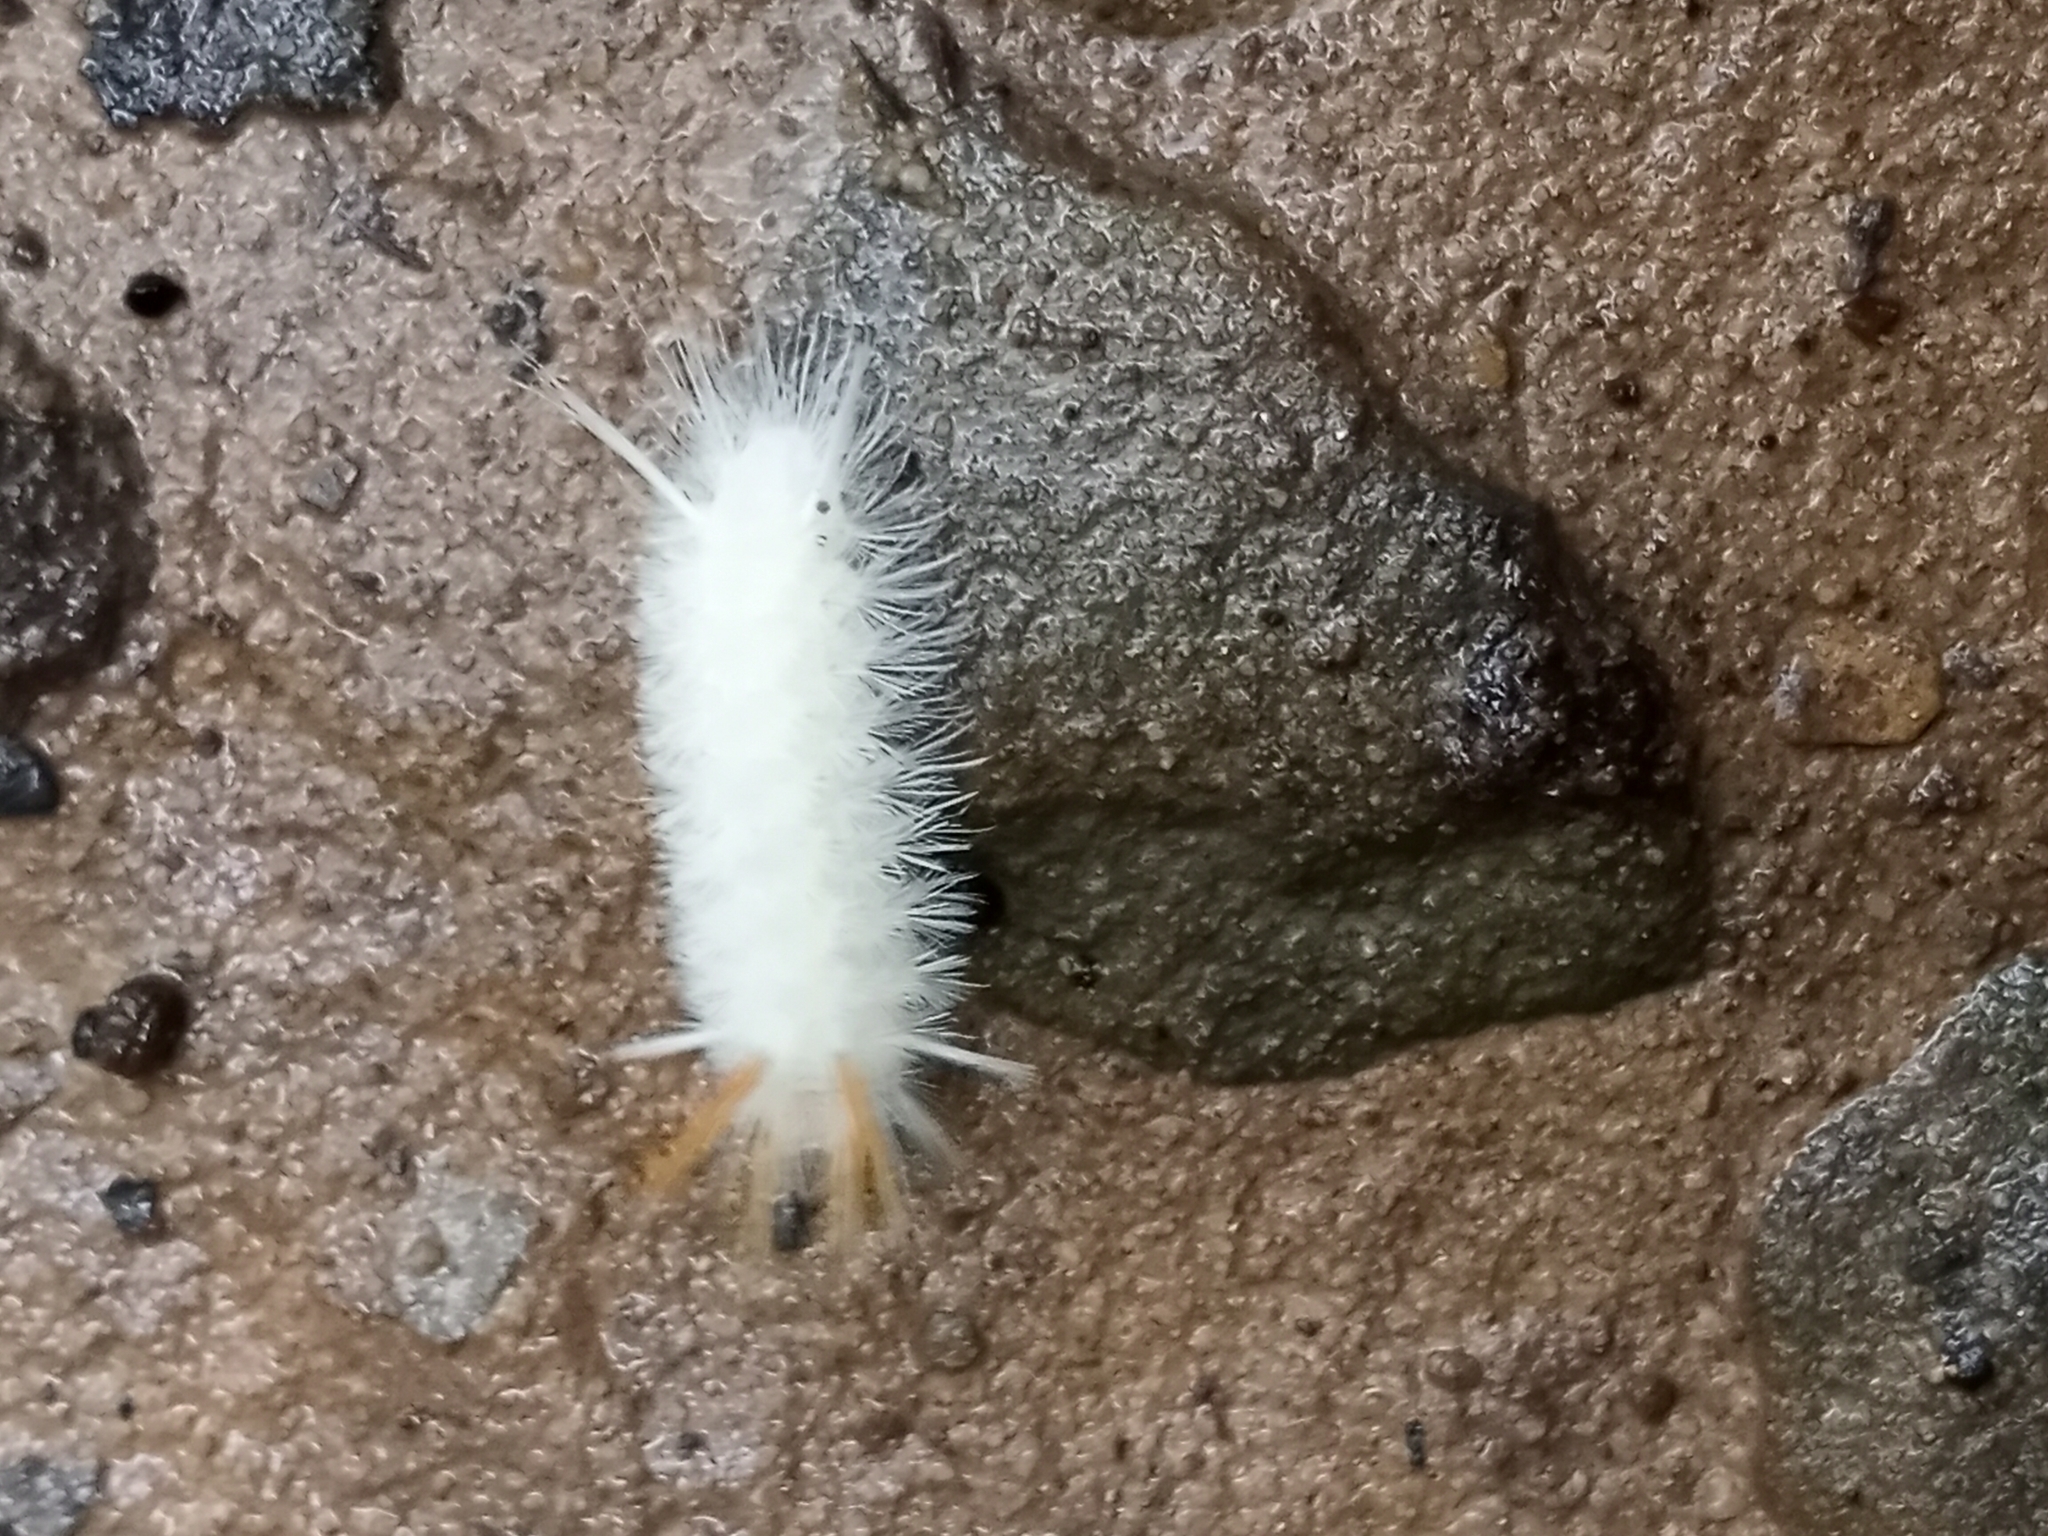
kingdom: Animalia
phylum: Arthropoda
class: Insecta
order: Lepidoptera
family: Erebidae
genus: Halysidota
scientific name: Halysidota harrisii
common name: Sycamore tussock moth
